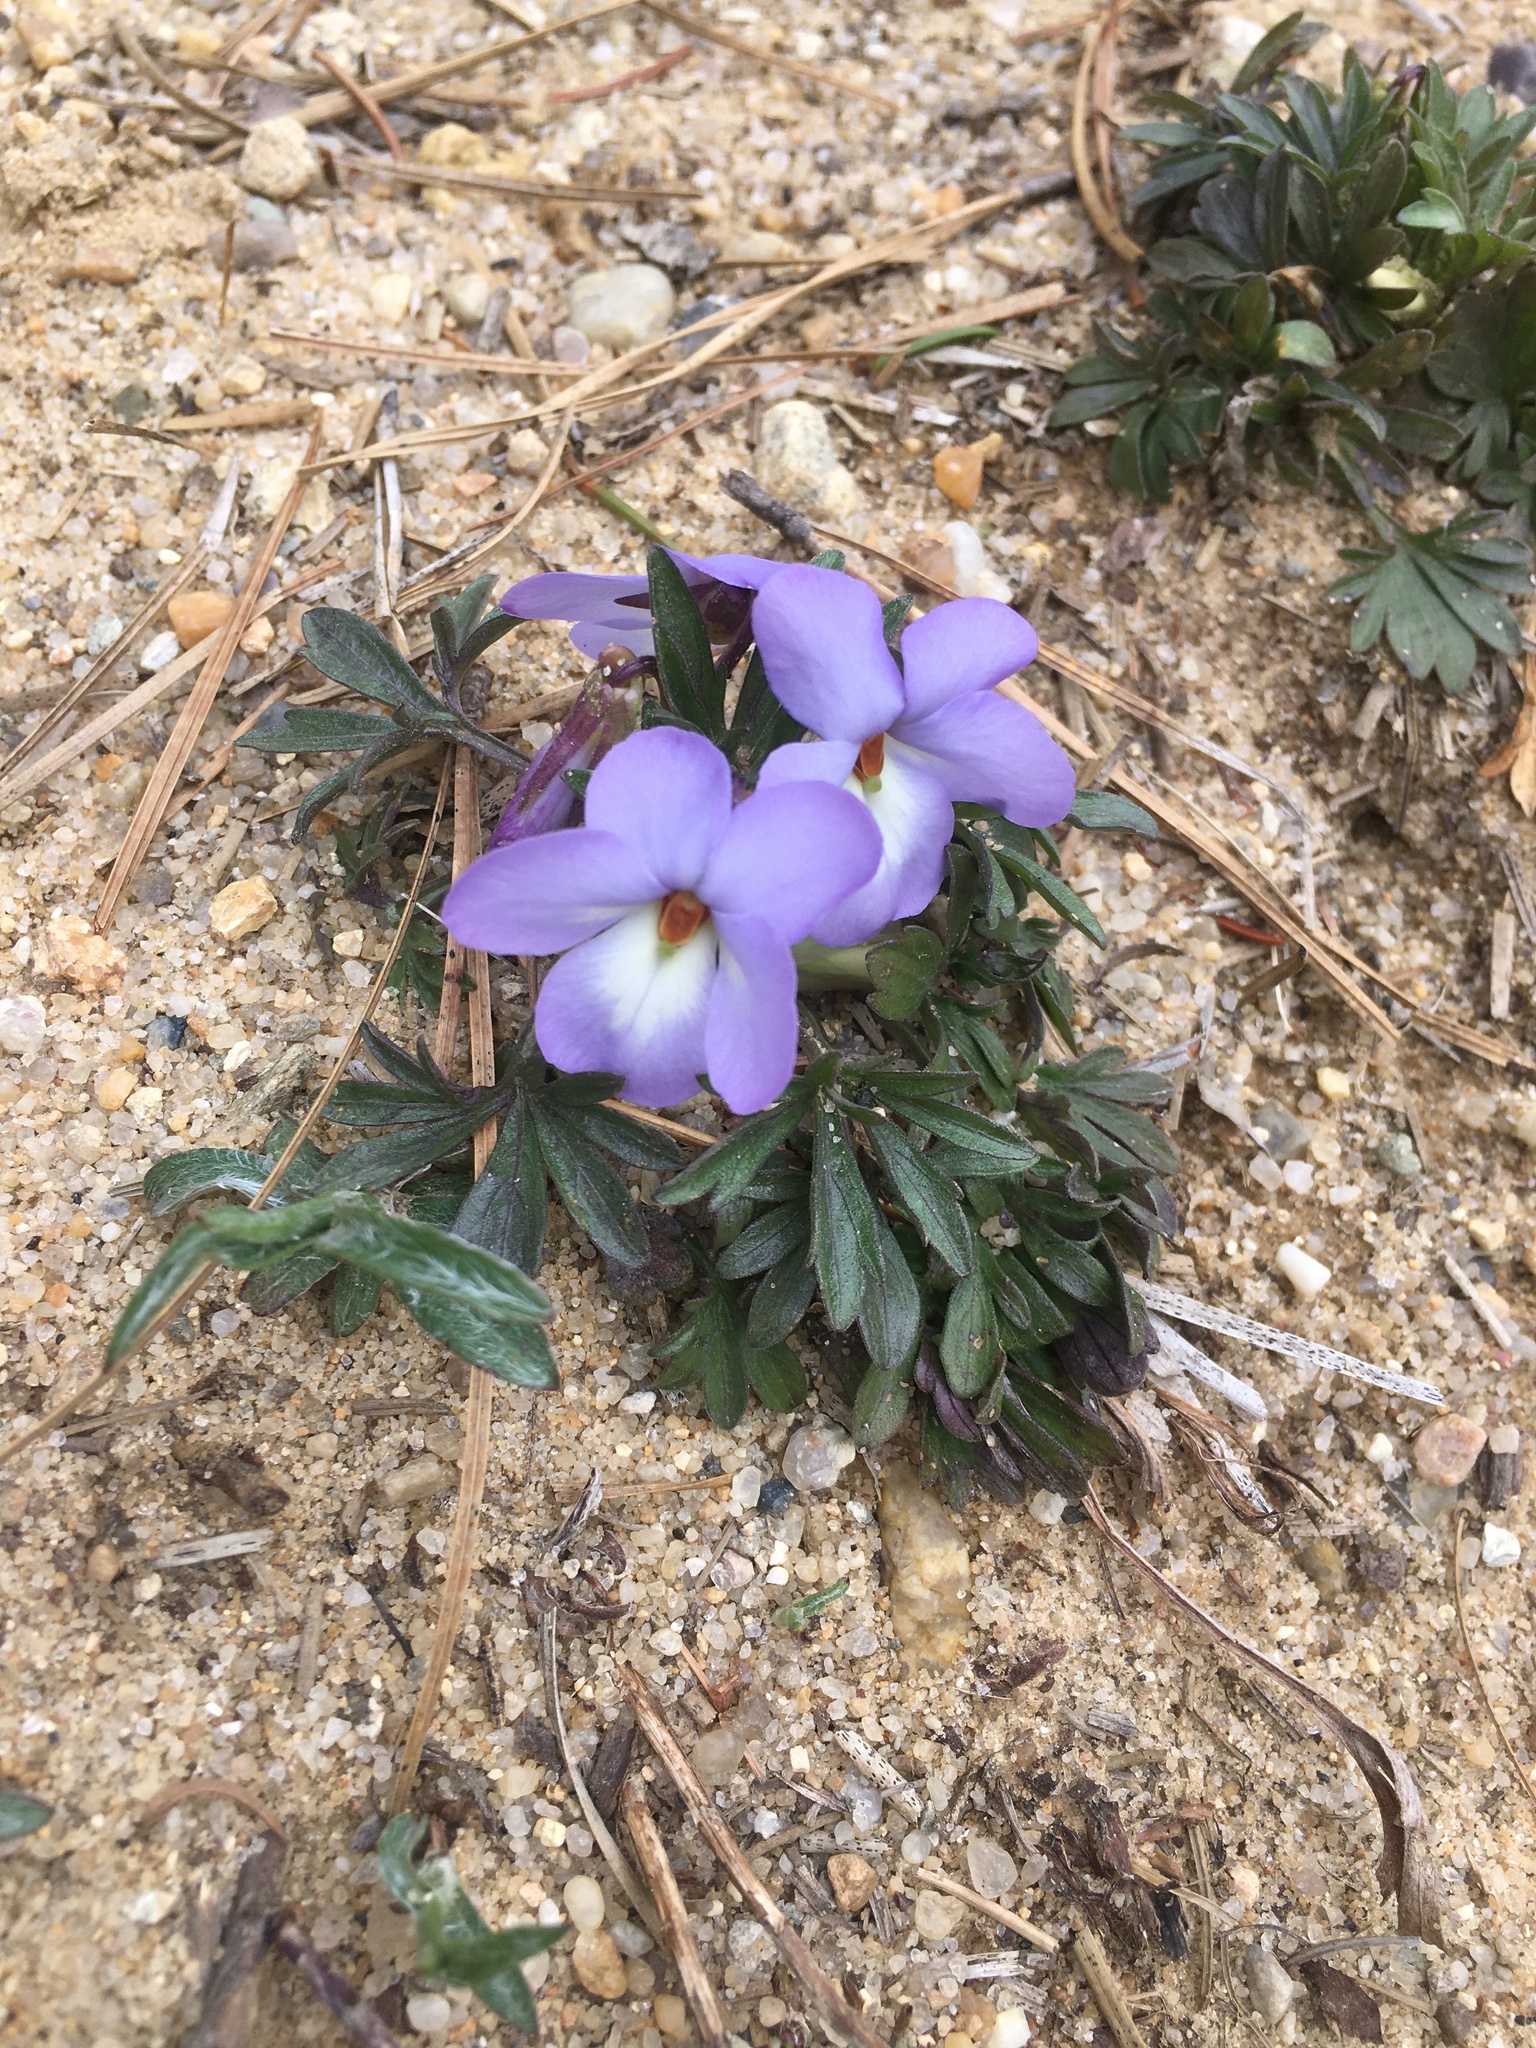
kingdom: Plantae
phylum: Tracheophyta
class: Magnoliopsida
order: Malpighiales
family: Violaceae
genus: Viola
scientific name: Viola pedata
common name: Pansy violet
